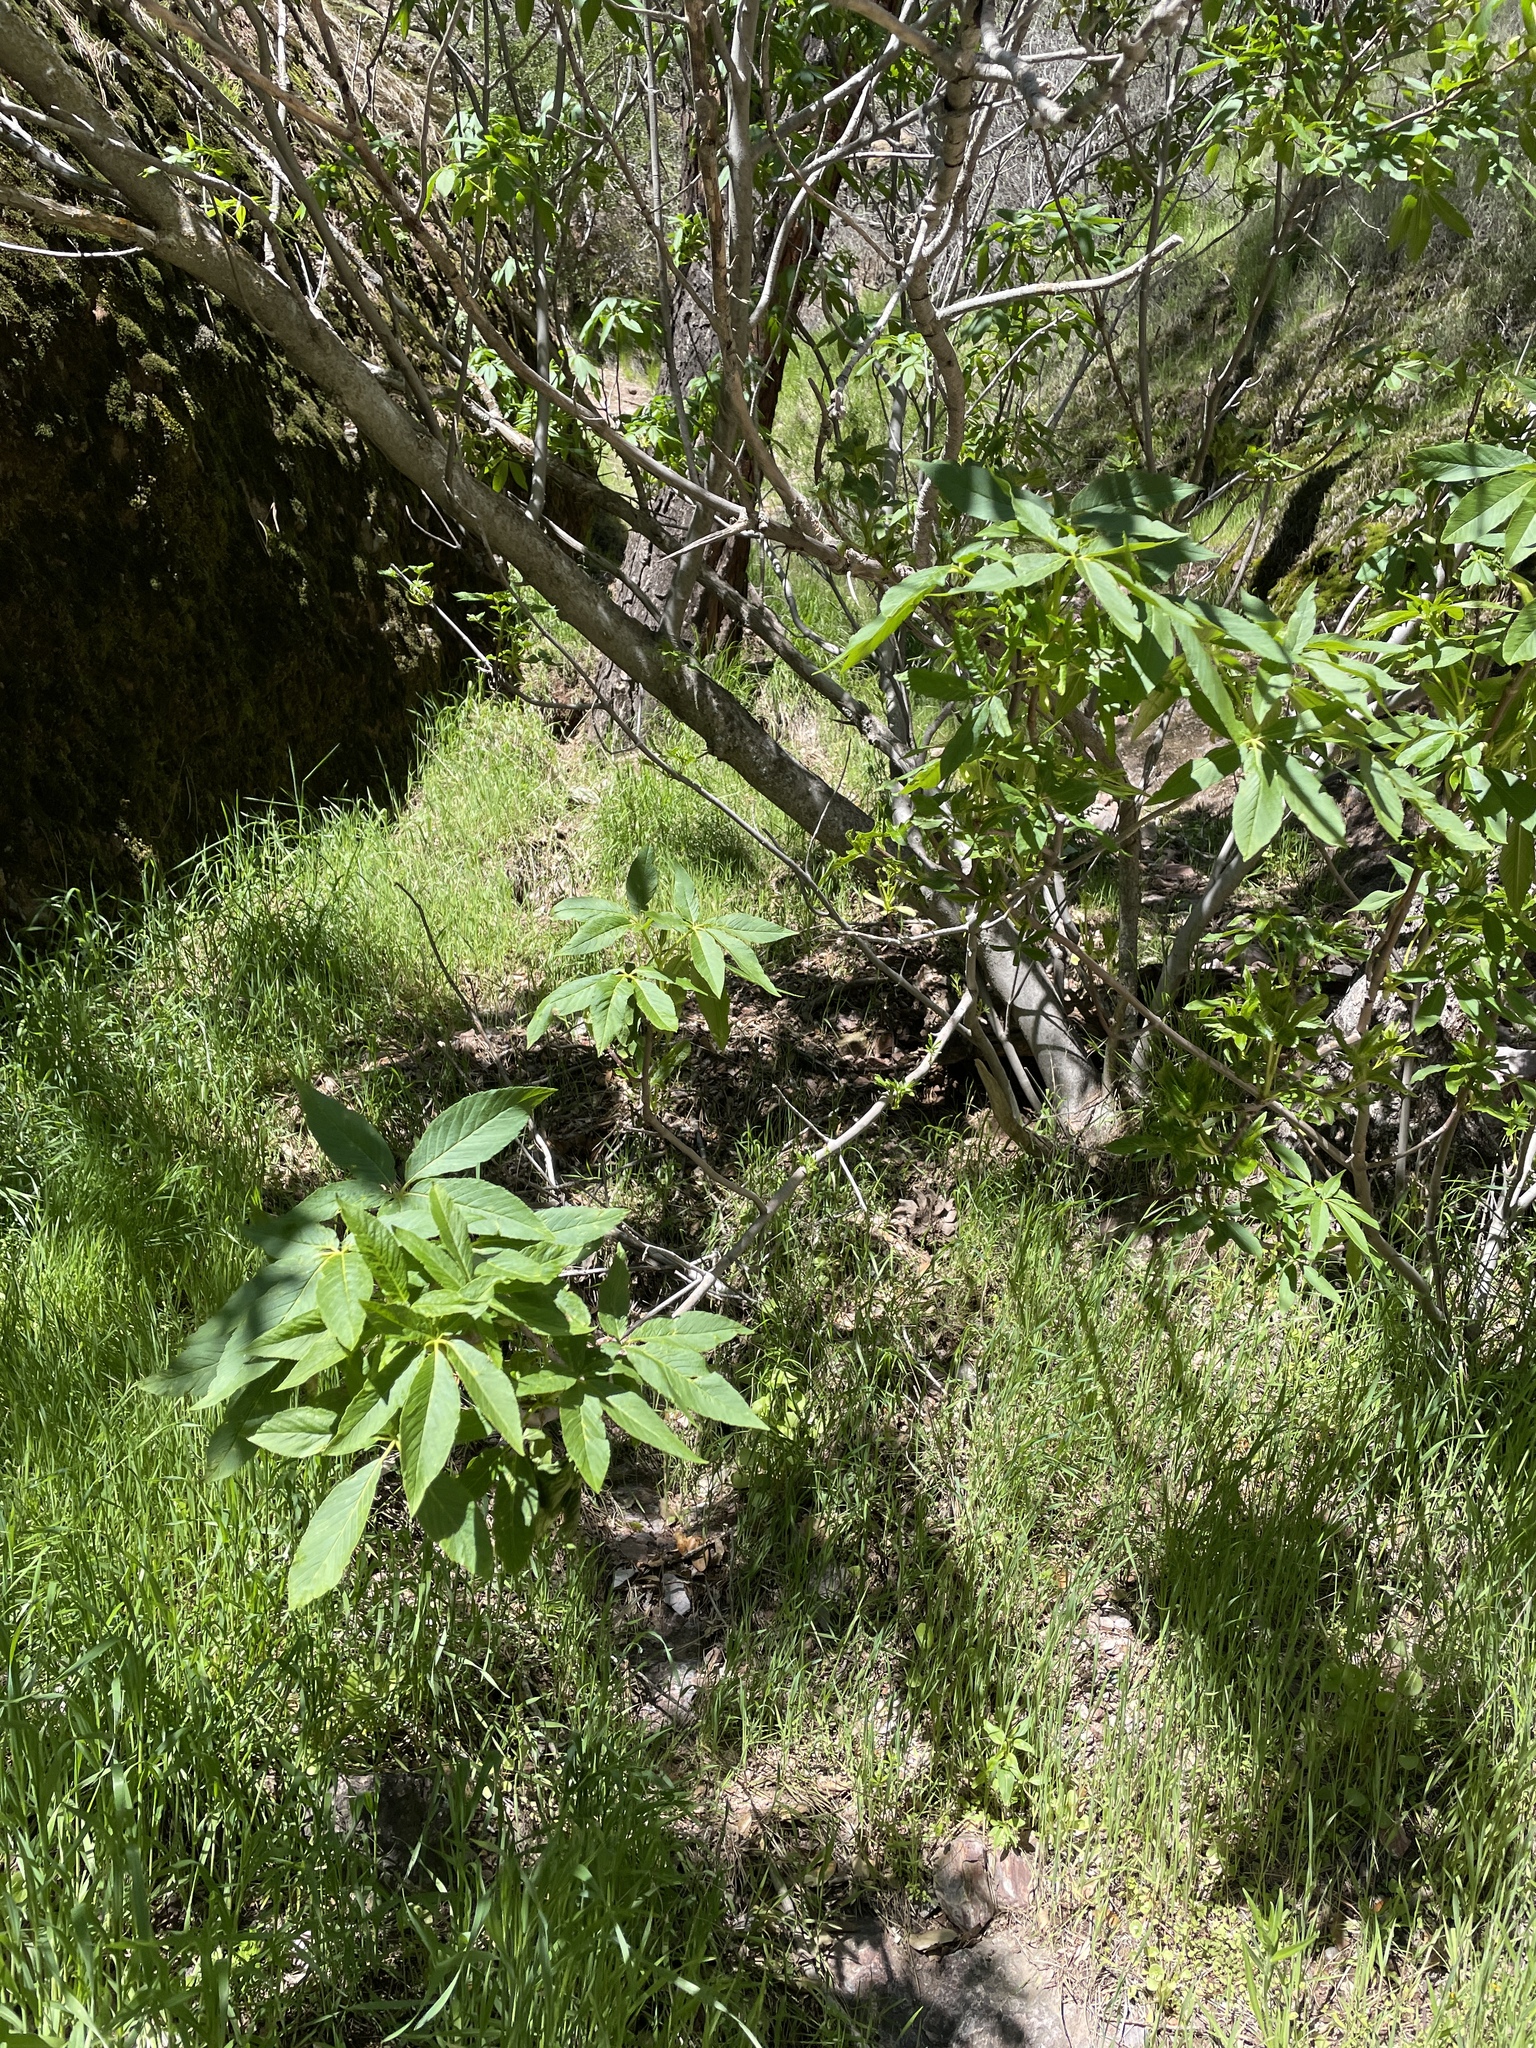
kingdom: Plantae
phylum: Tracheophyta
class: Magnoliopsida
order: Sapindales
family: Sapindaceae
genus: Aesculus
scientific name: Aesculus californica
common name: California buckeye
